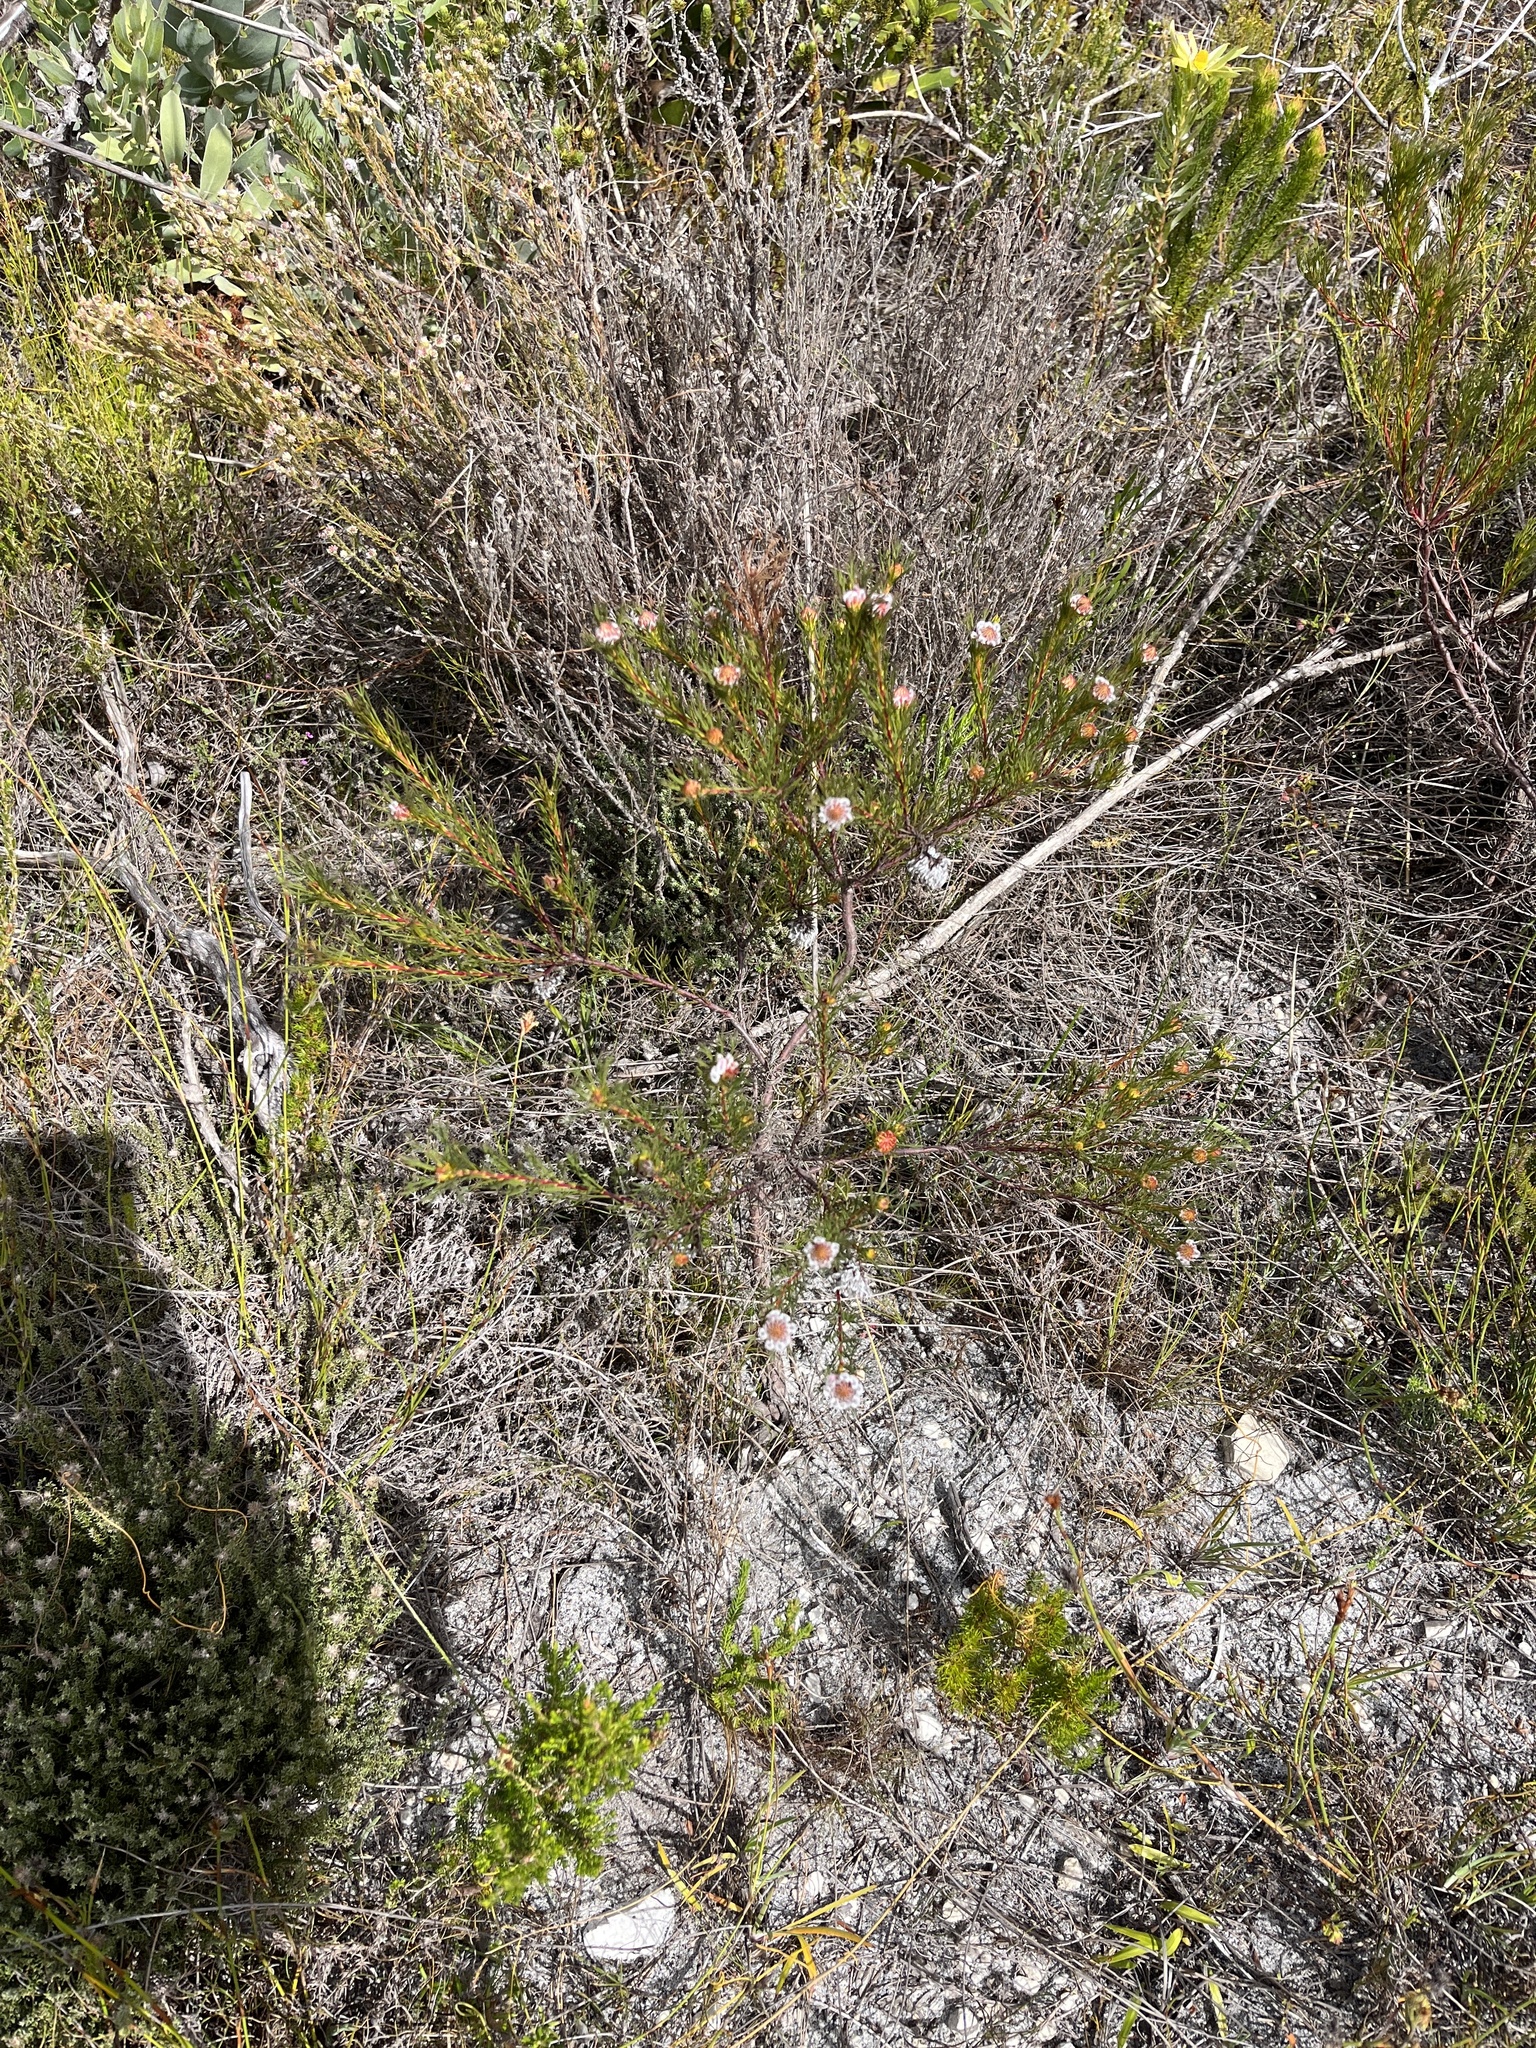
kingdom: Plantae
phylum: Tracheophyta
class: Magnoliopsida
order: Proteales
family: Proteaceae
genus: Serruria
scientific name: Serruria nervosa
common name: Fluted spiderhead
